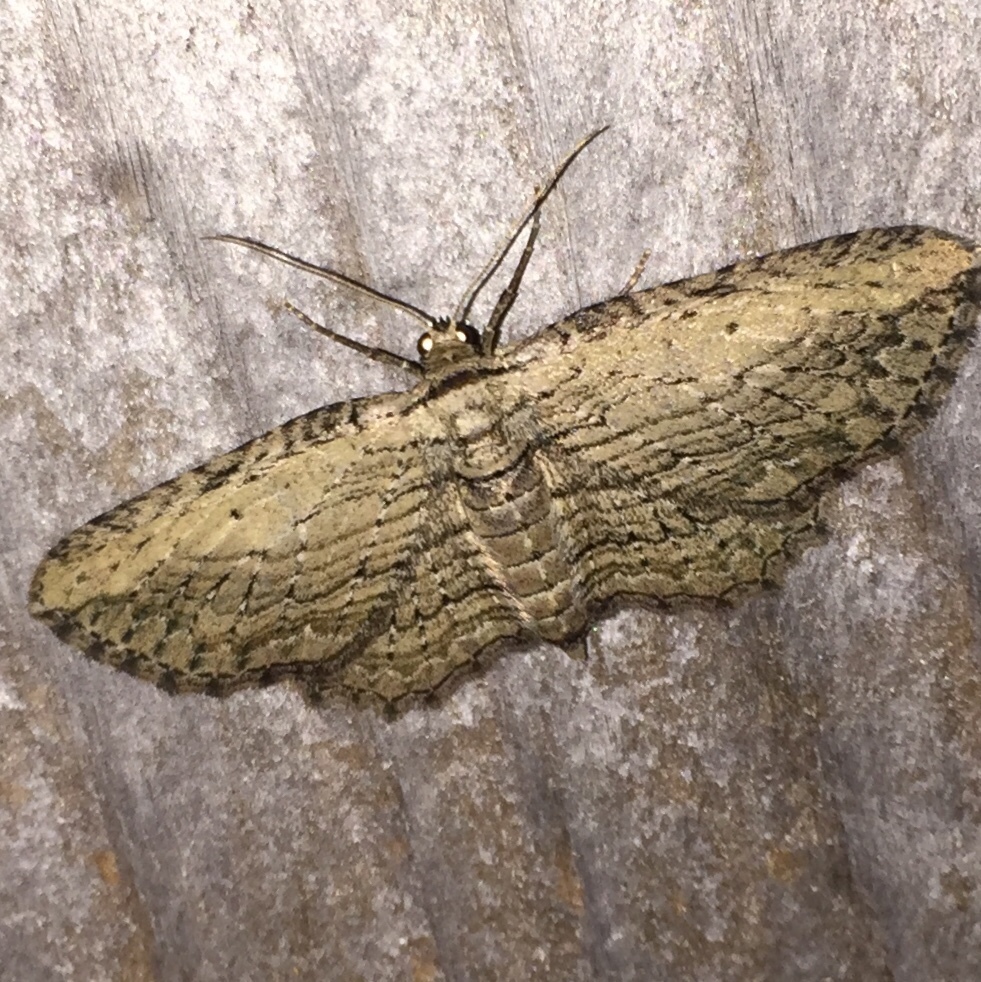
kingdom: Animalia
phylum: Arthropoda
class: Insecta
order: Lepidoptera
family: Geometridae
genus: Horisme
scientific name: Horisme intestinata
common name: Brown bark carpet
